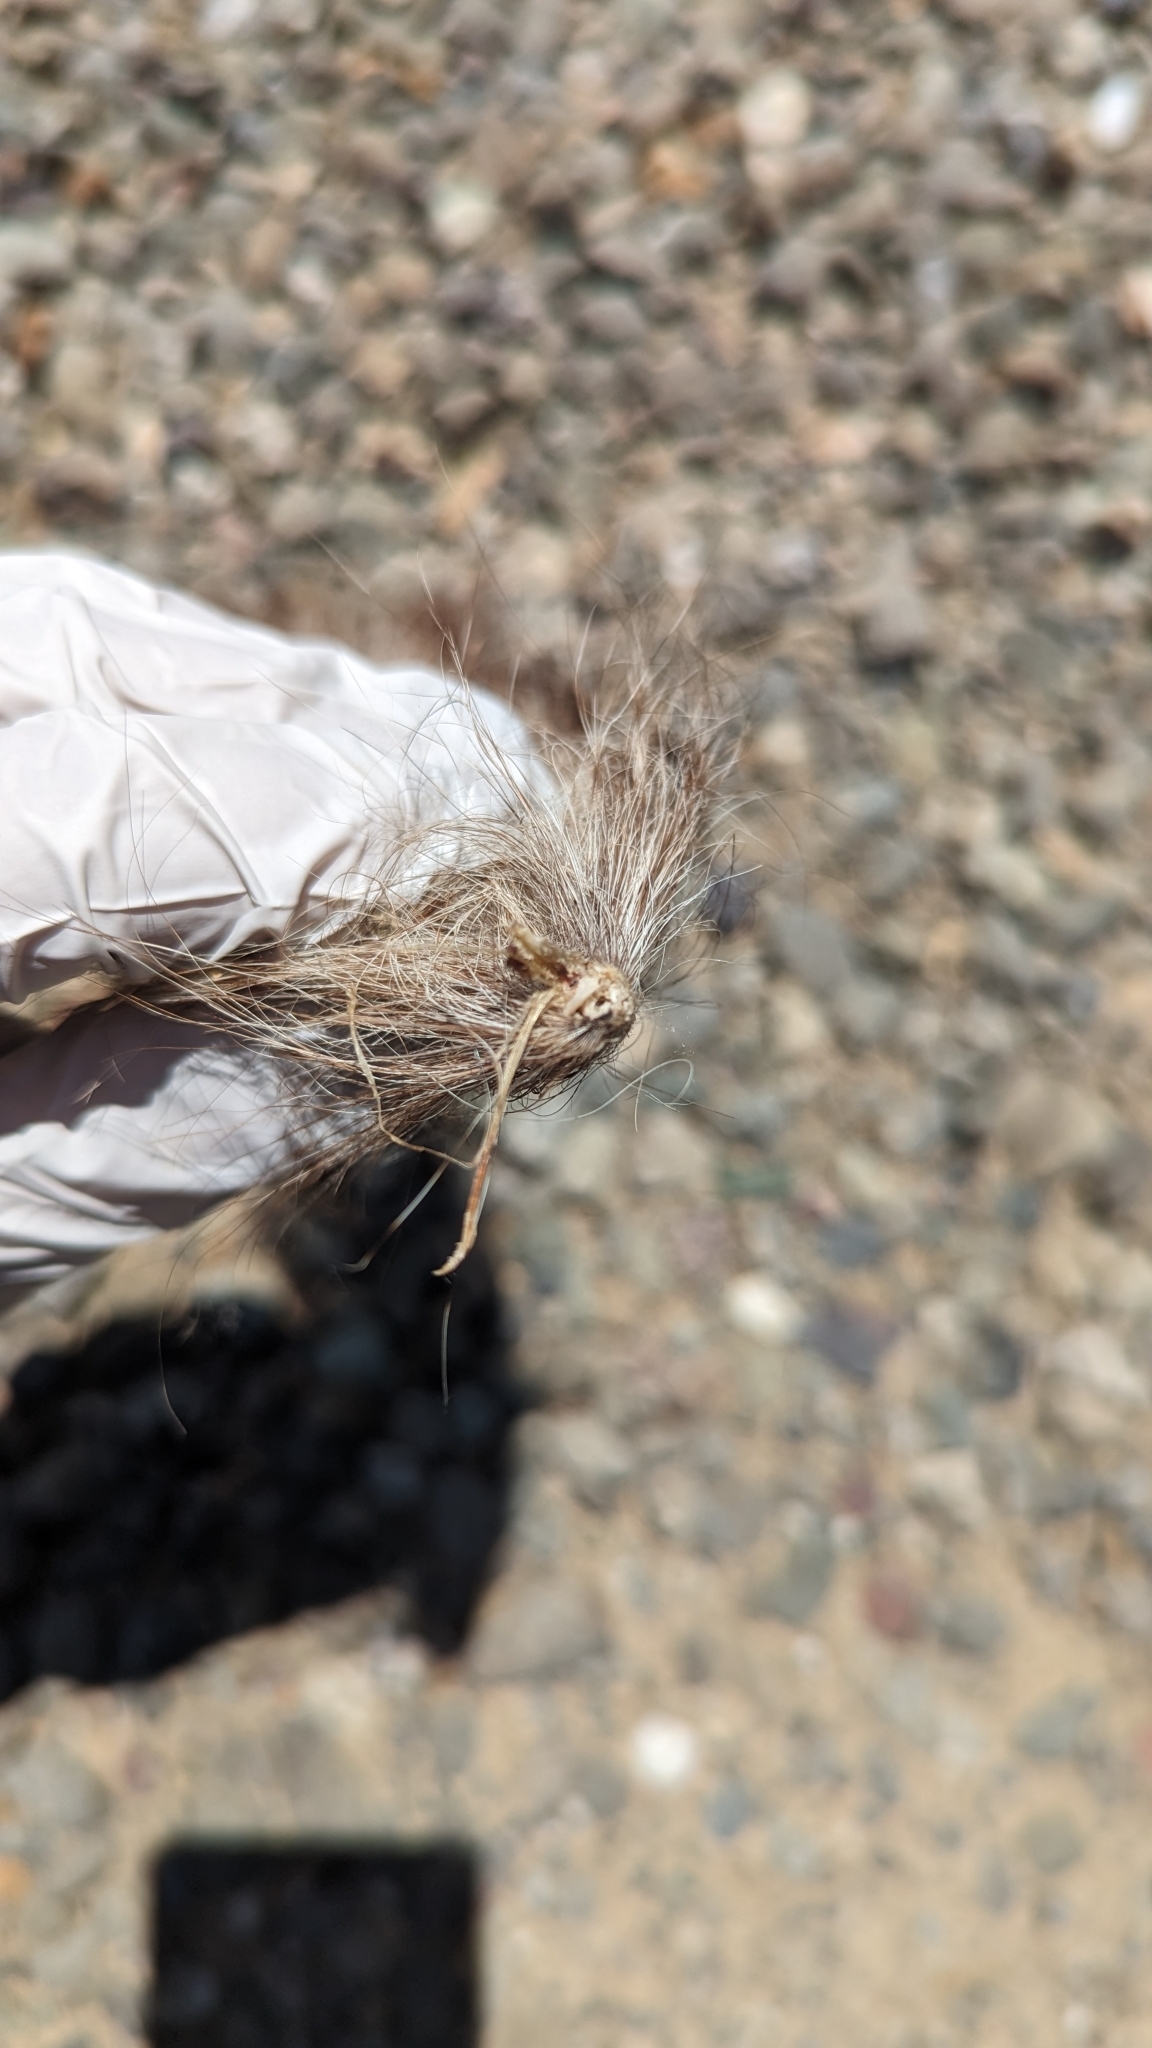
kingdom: Animalia
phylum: Chordata
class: Mammalia
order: Rodentia
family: Sciuridae
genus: Sciurus
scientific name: Sciurus griseus
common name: Western gray squirrel
